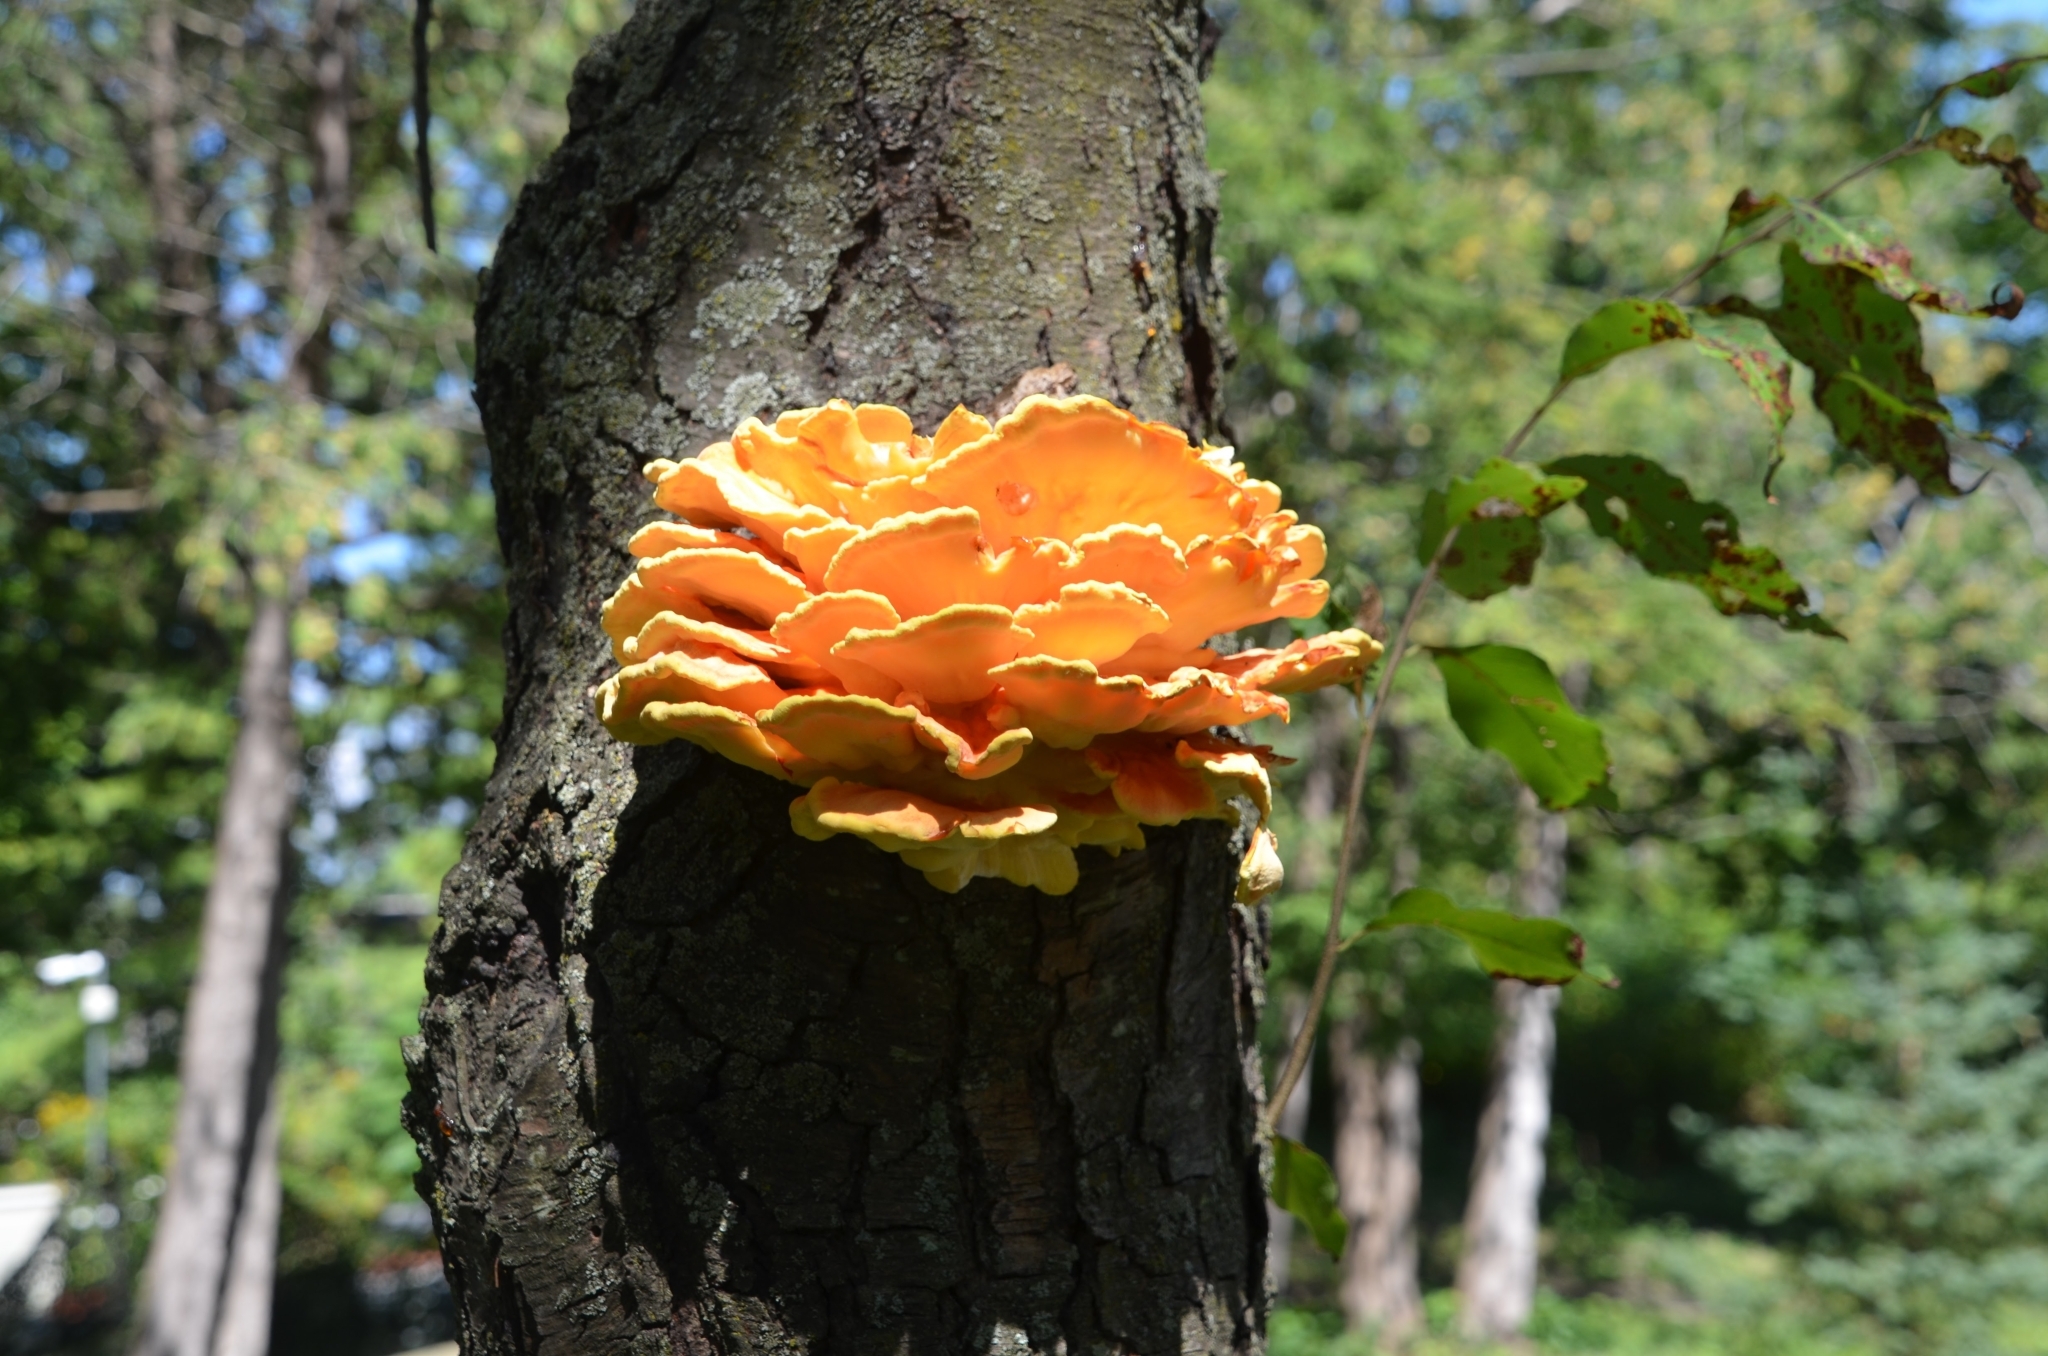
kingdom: Fungi
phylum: Basidiomycota
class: Agaricomycetes
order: Polyporales
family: Laetiporaceae
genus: Laetiporus
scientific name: Laetiporus sulphureus
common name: Chicken of the woods
